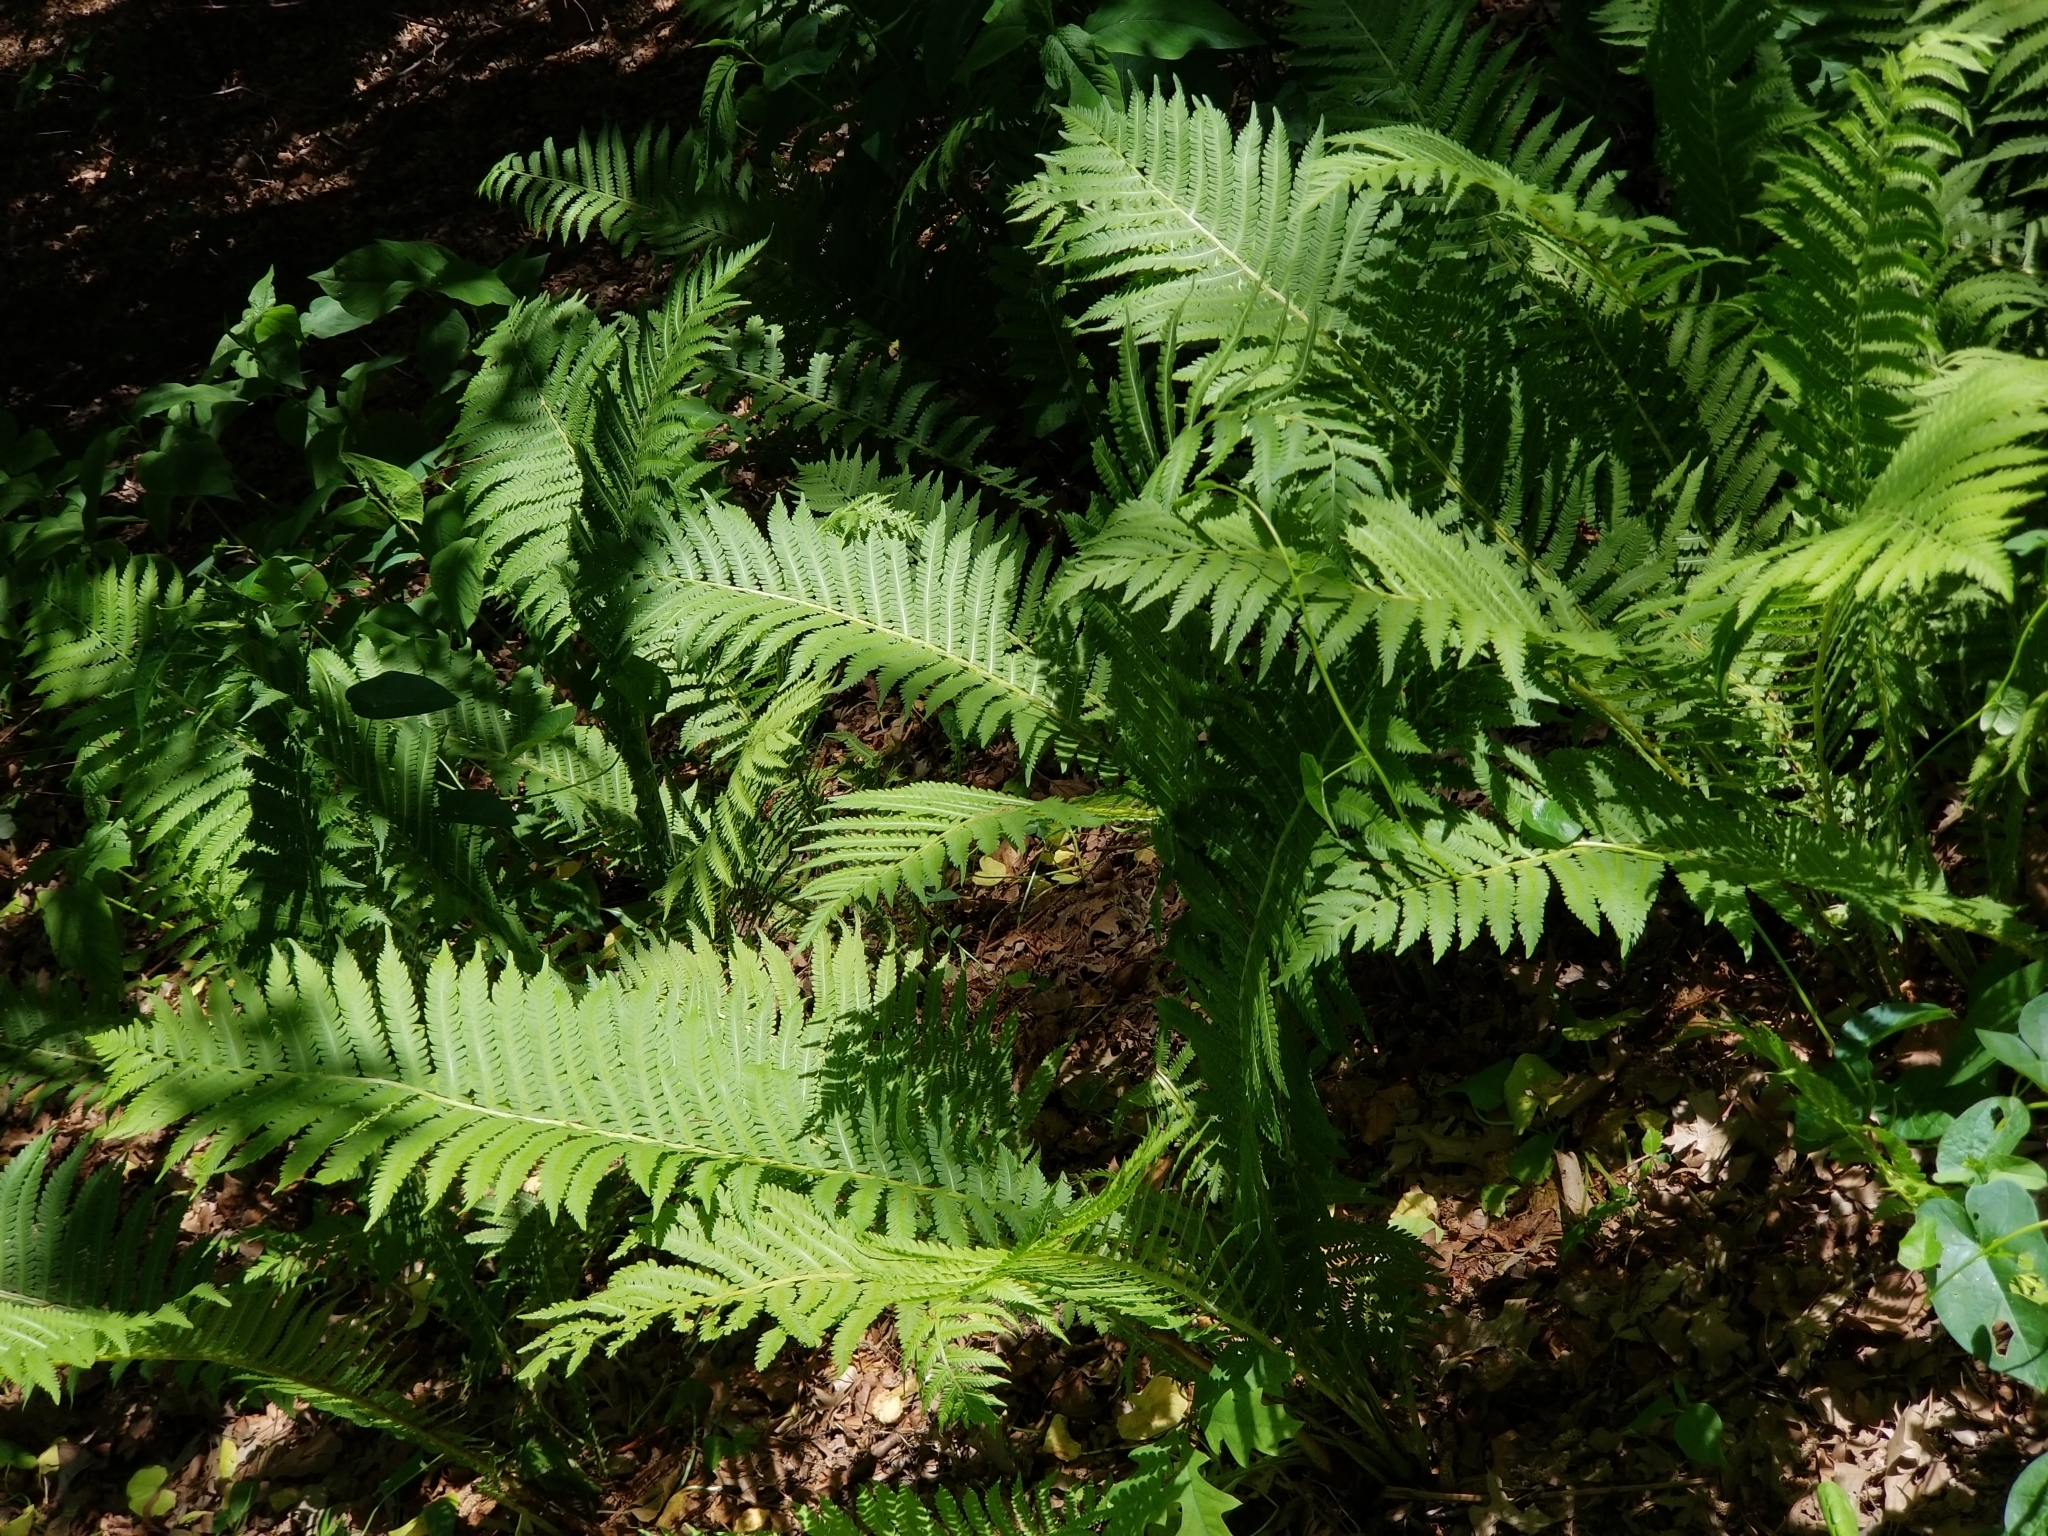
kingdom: Plantae
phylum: Tracheophyta
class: Polypodiopsida
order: Polypodiales
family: Onocleaceae
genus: Matteuccia
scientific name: Matteuccia struthiopteris
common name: Ostrich fern
